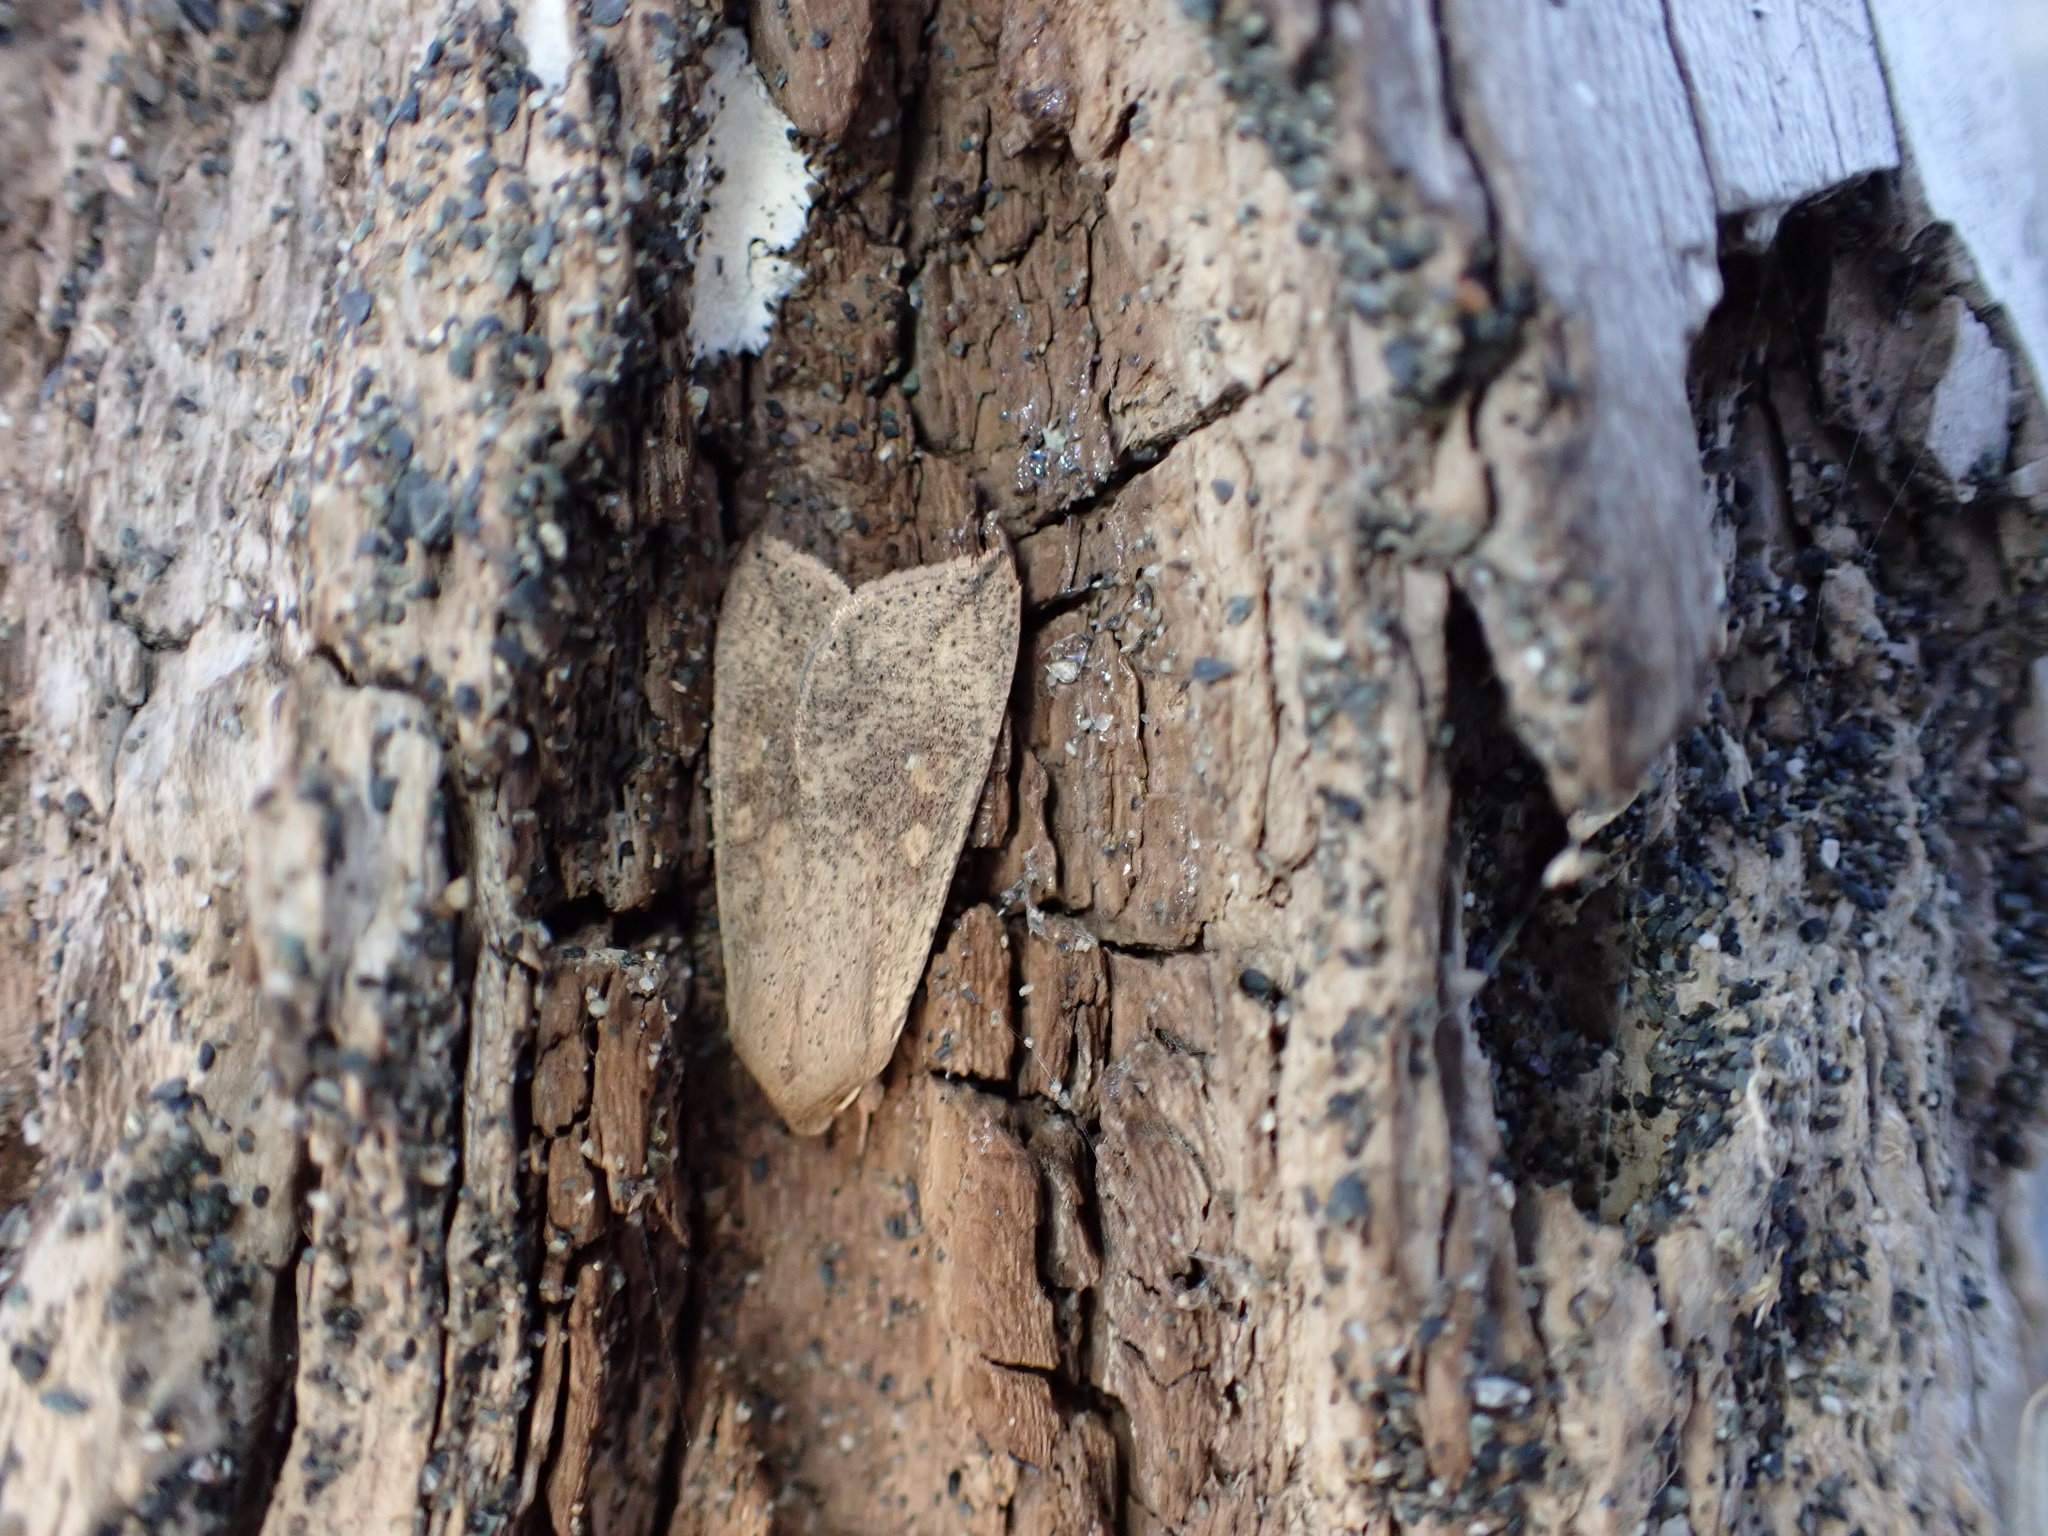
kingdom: Animalia
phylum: Arthropoda
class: Insecta
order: Lepidoptera
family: Noctuidae
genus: Mythimna
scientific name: Mythimna separata
